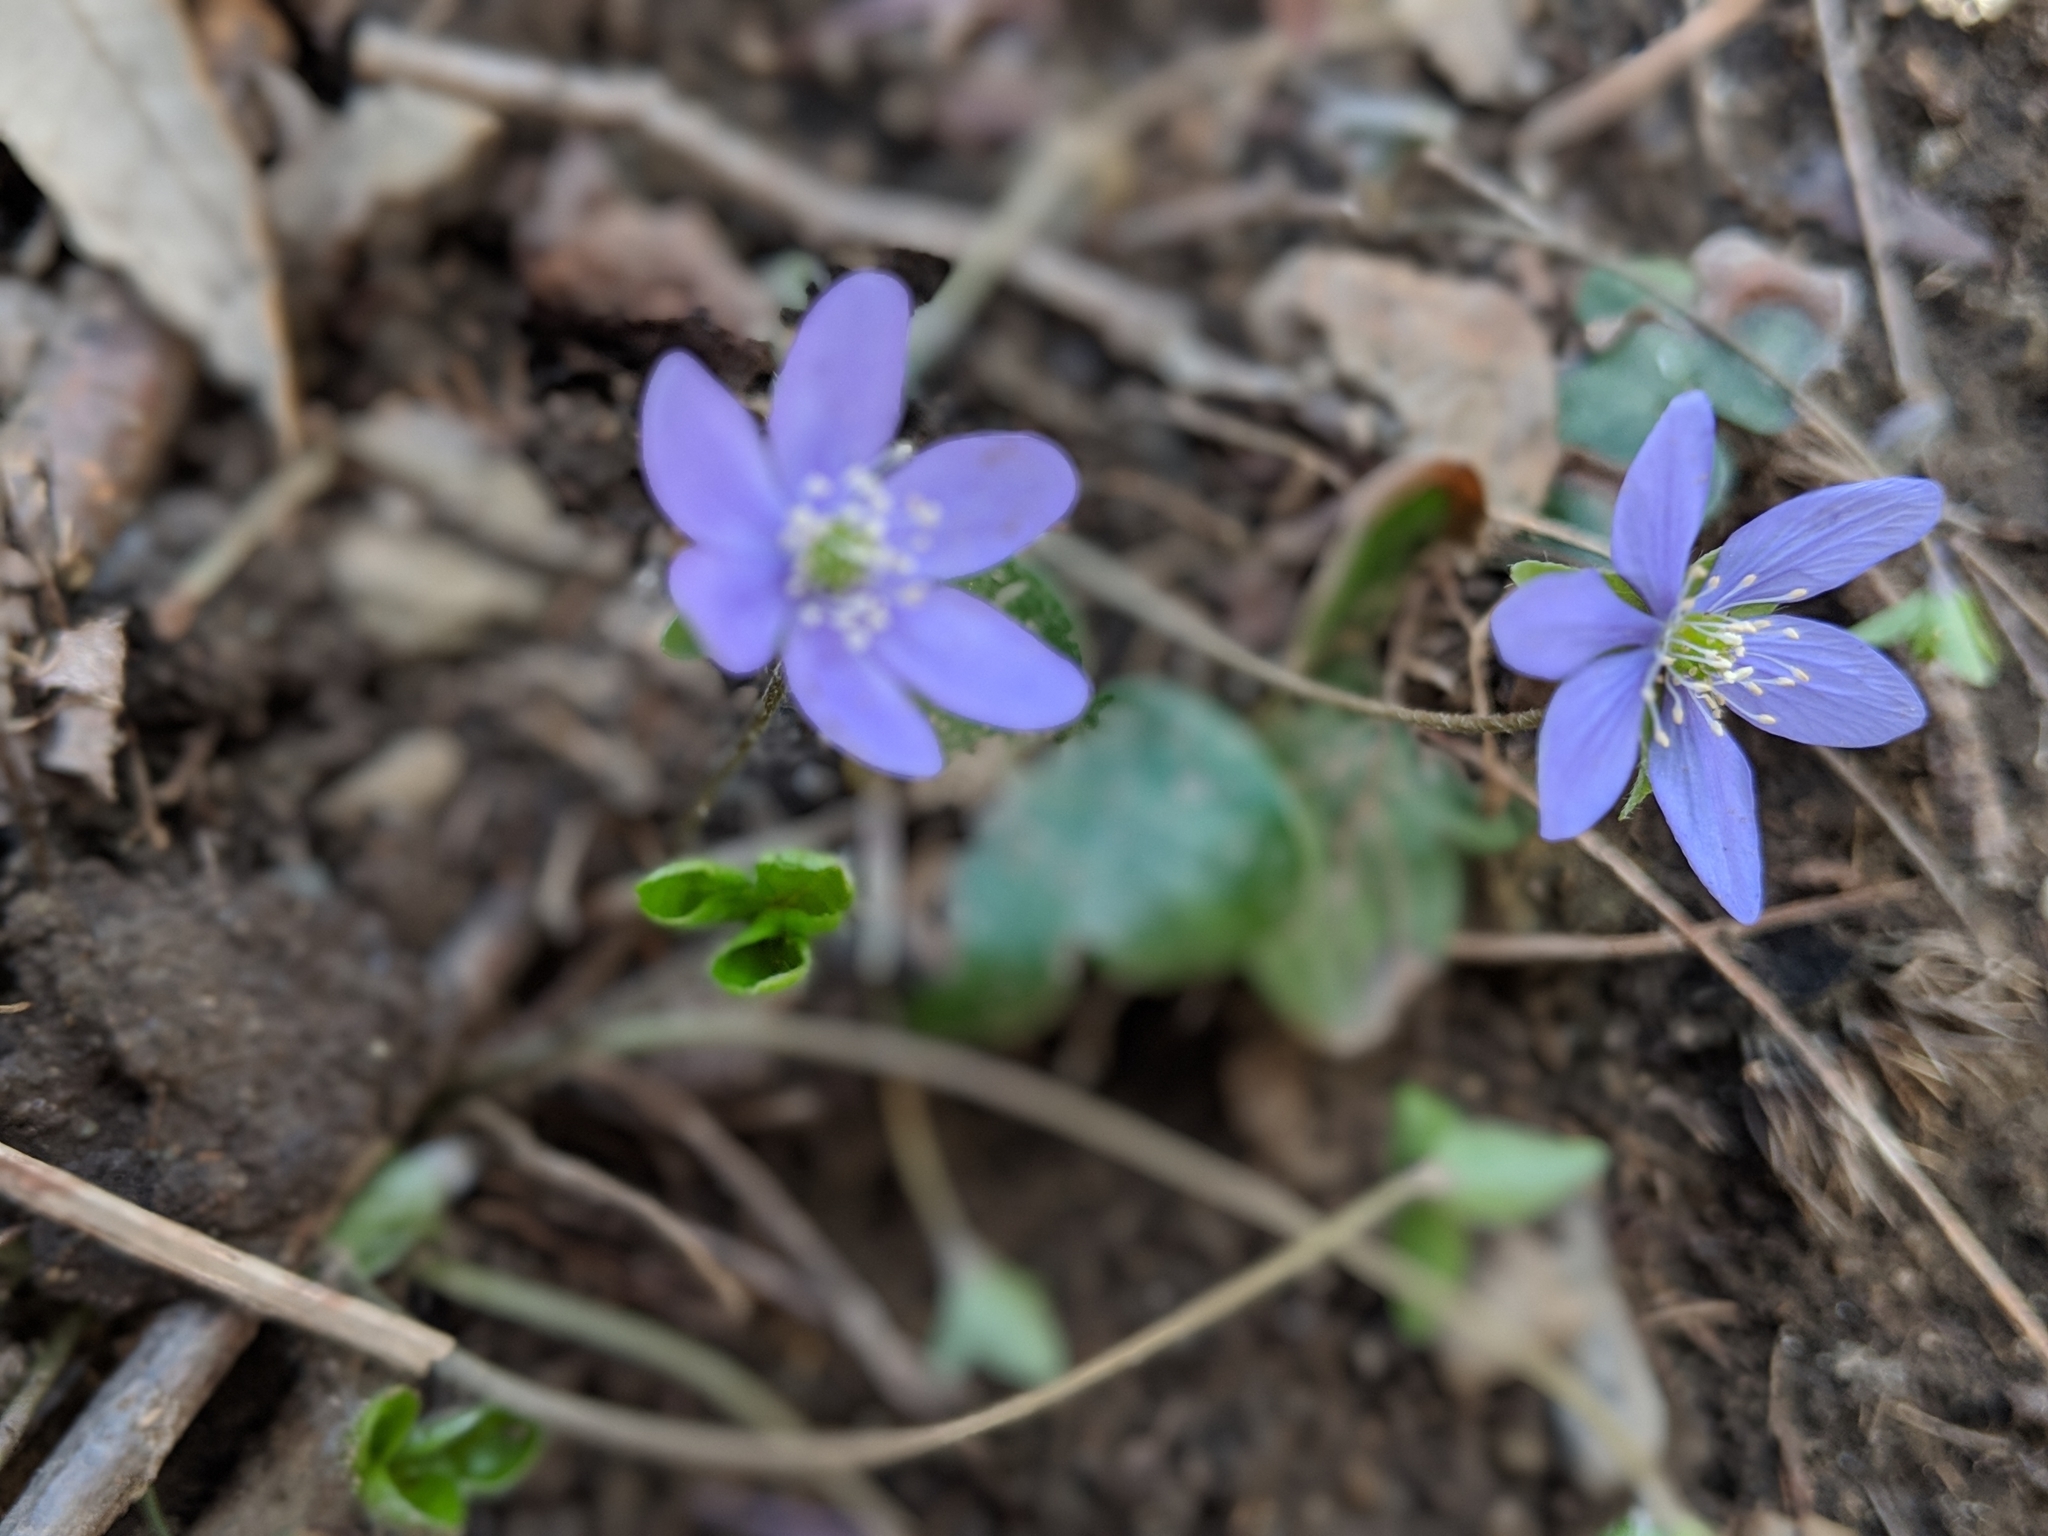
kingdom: Plantae
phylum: Tracheophyta
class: Magnoliopsida
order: Ranunculales
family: Ranunculaceae
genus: Hepatica
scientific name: Hepatica nobilis
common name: Liverleaf
